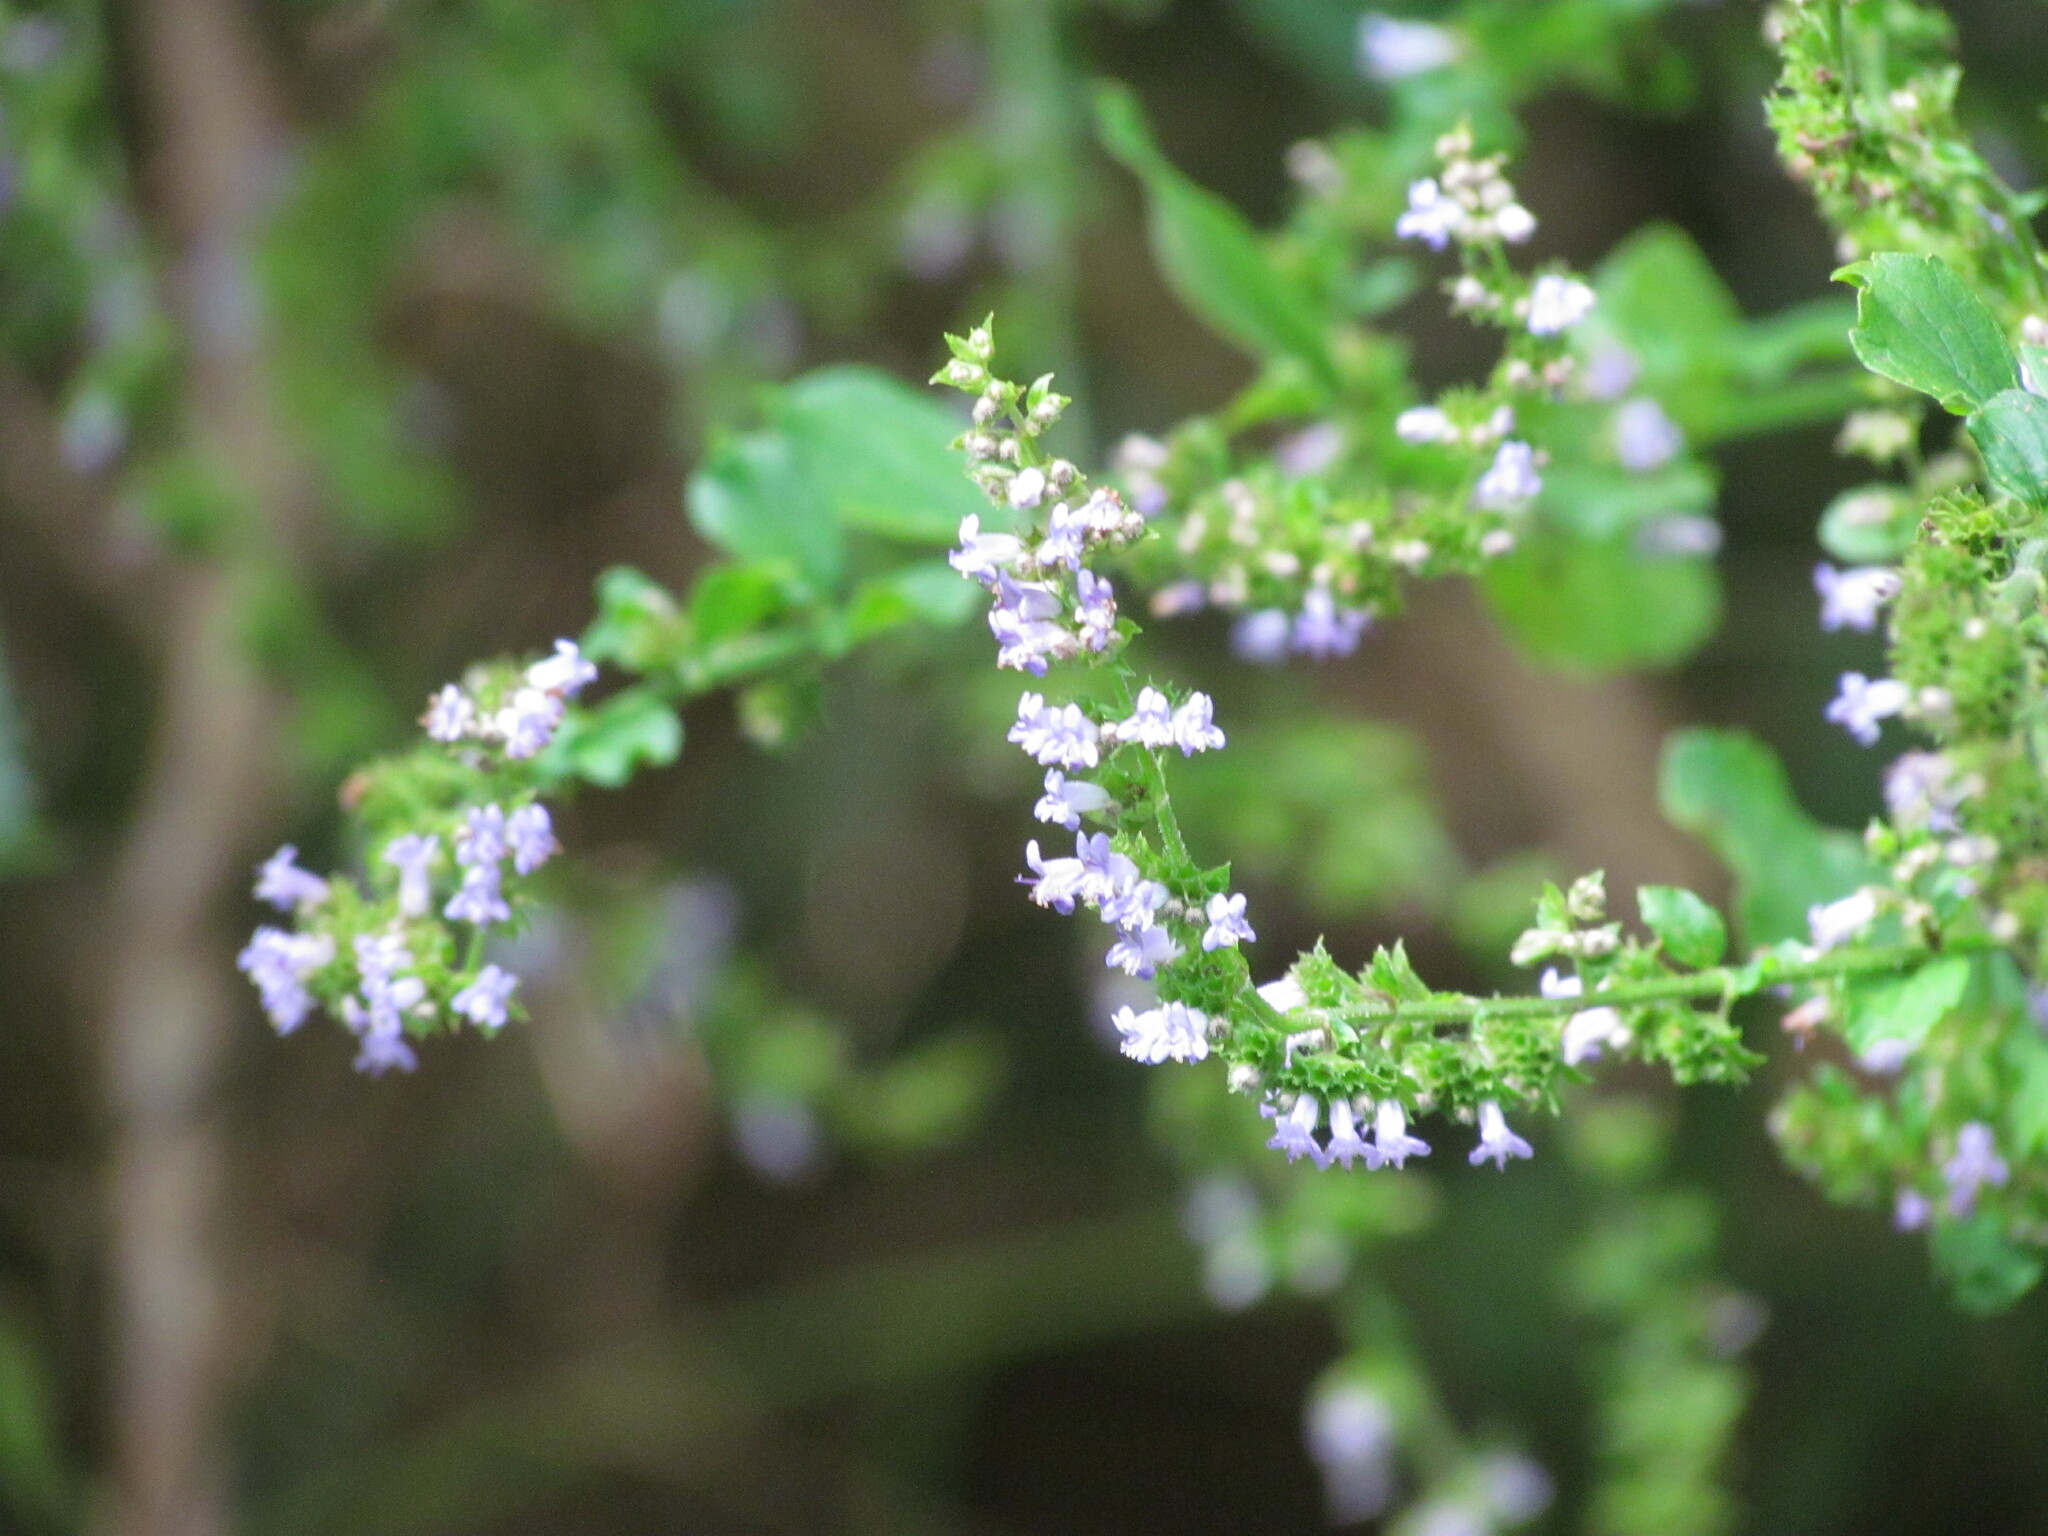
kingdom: Plantae
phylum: Tracheophyta
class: Magnoliopsida
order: Lamiales
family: Lamiaceae
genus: Cantinoa
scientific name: Cantinoa mutabilis
